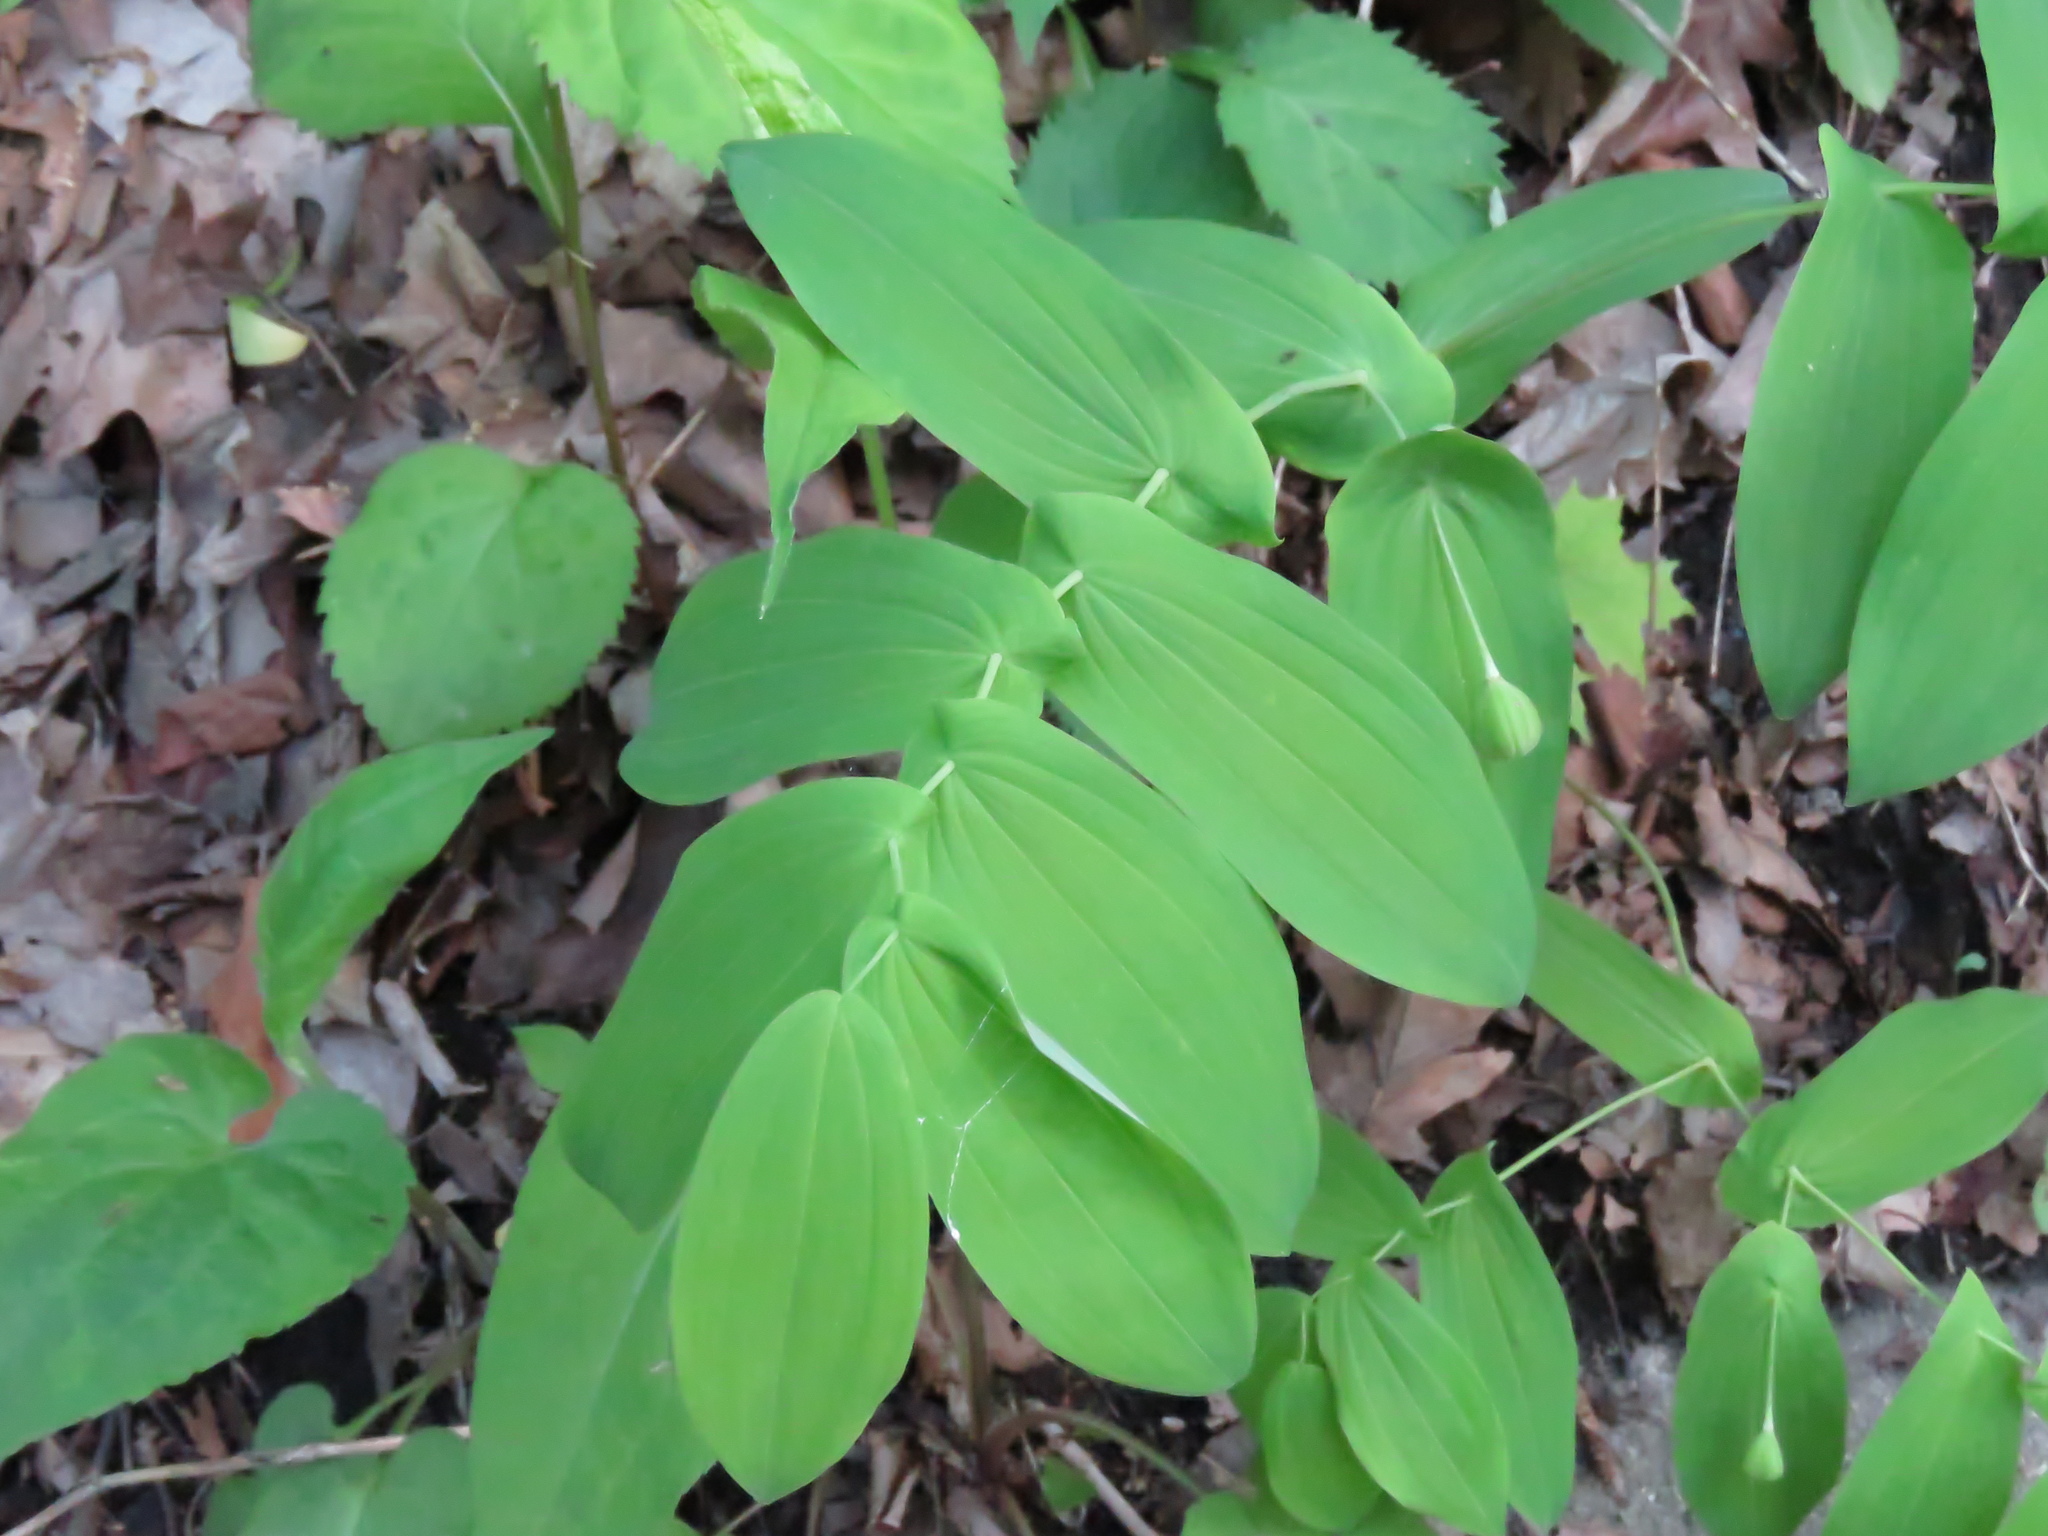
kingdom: Plantae
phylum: Tracheophyta
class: Liliopsida
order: Liliales
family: Colchicaceae
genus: Uvularia
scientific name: Uvularia grandiflora
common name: Bellwort
